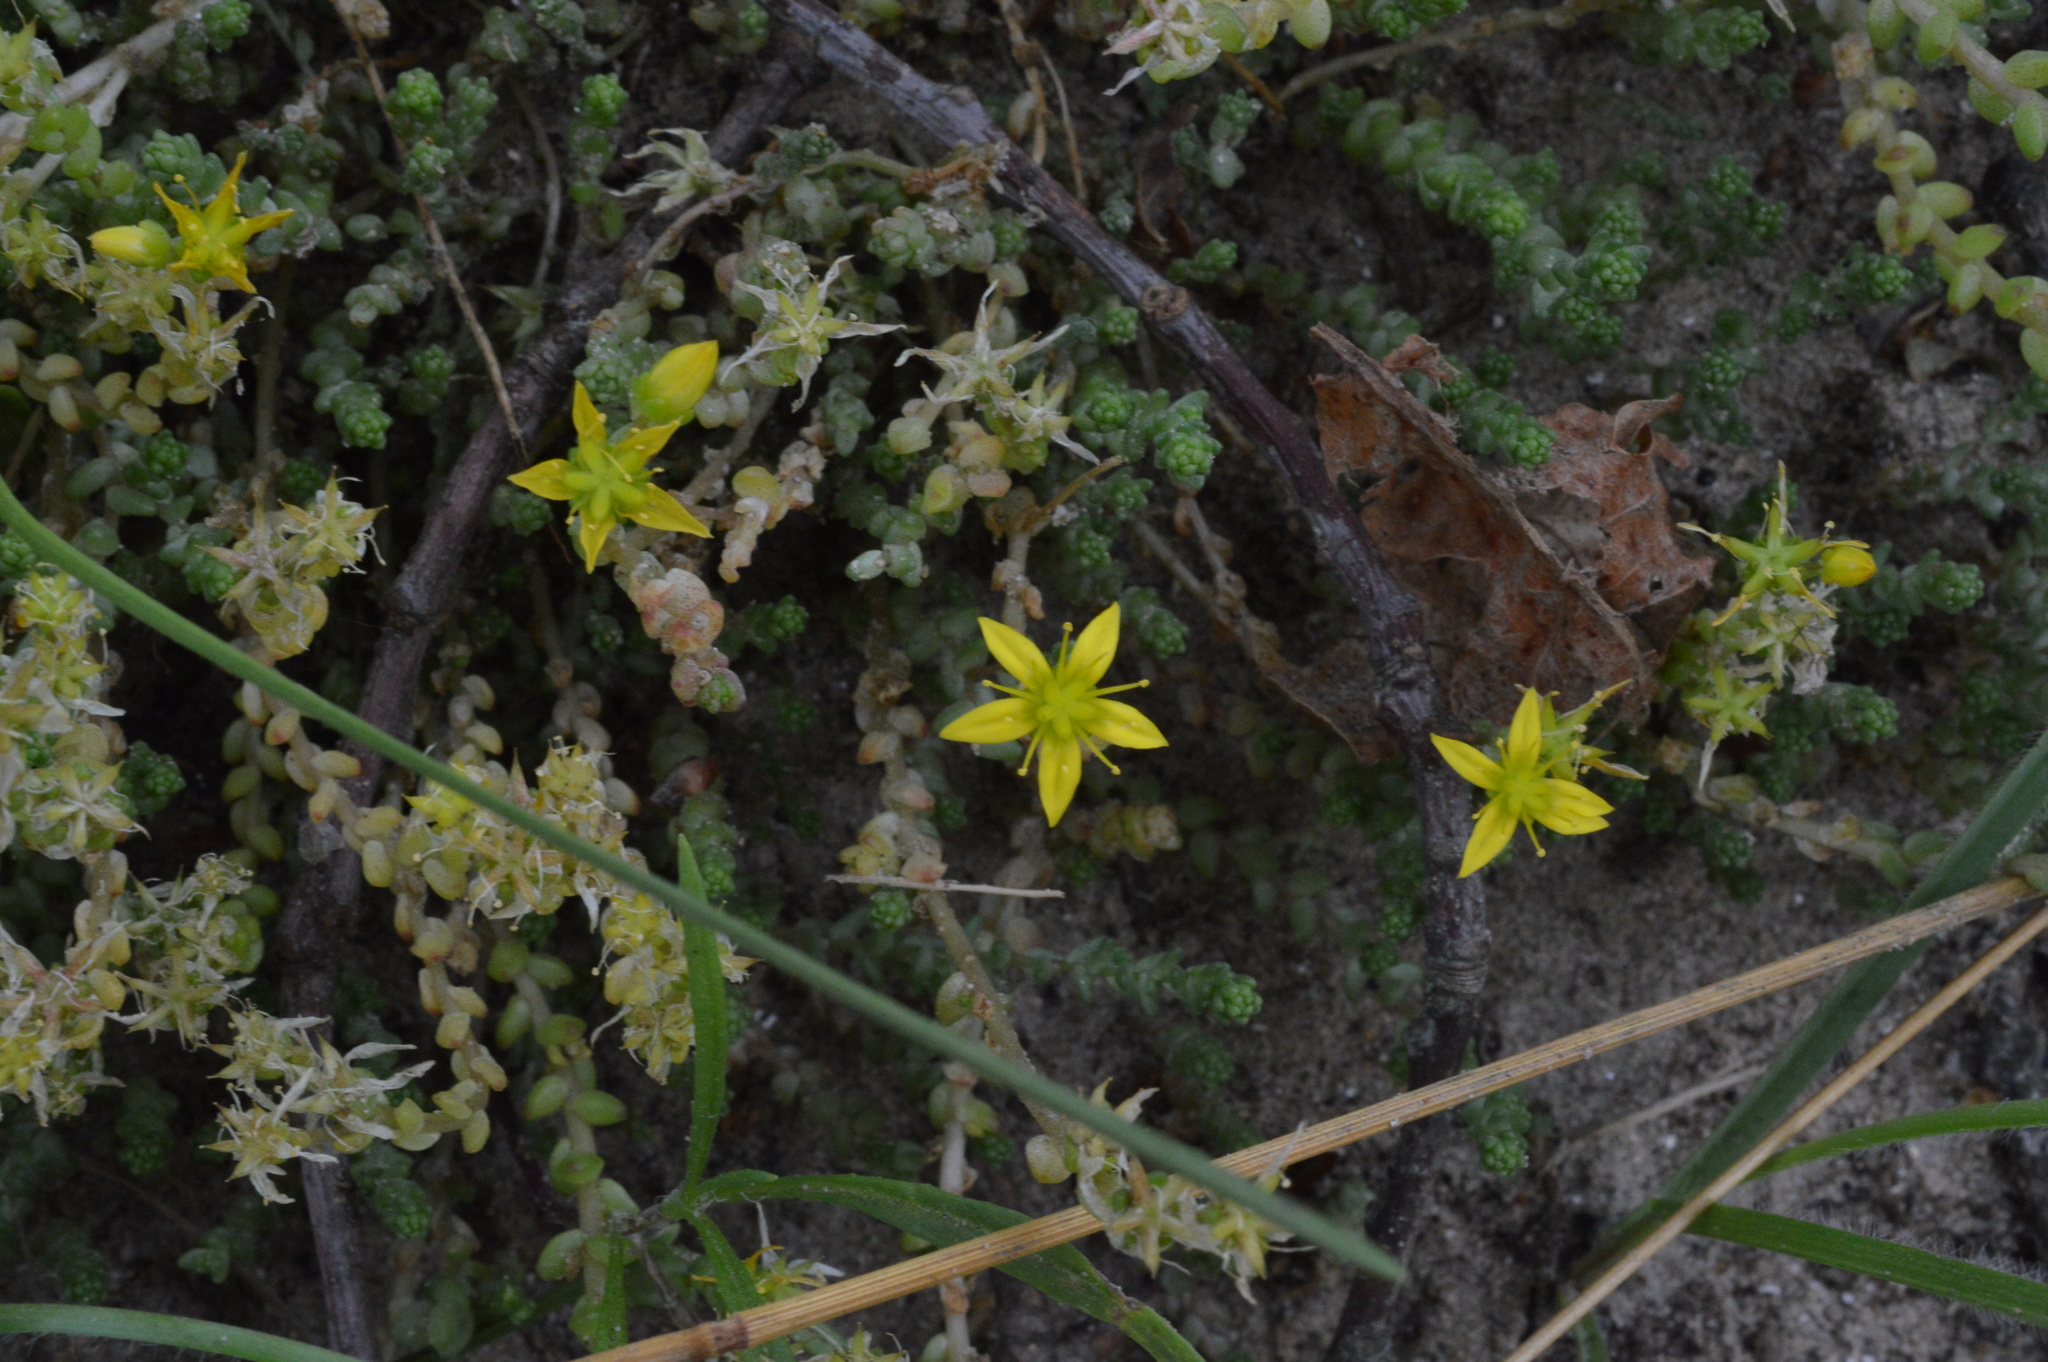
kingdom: Plantae
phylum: Tracheophyta
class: Magnoliopsida
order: Saxifragales
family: Crassulaceae
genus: Sedum
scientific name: Sedum acre
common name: Biting stonecrop
